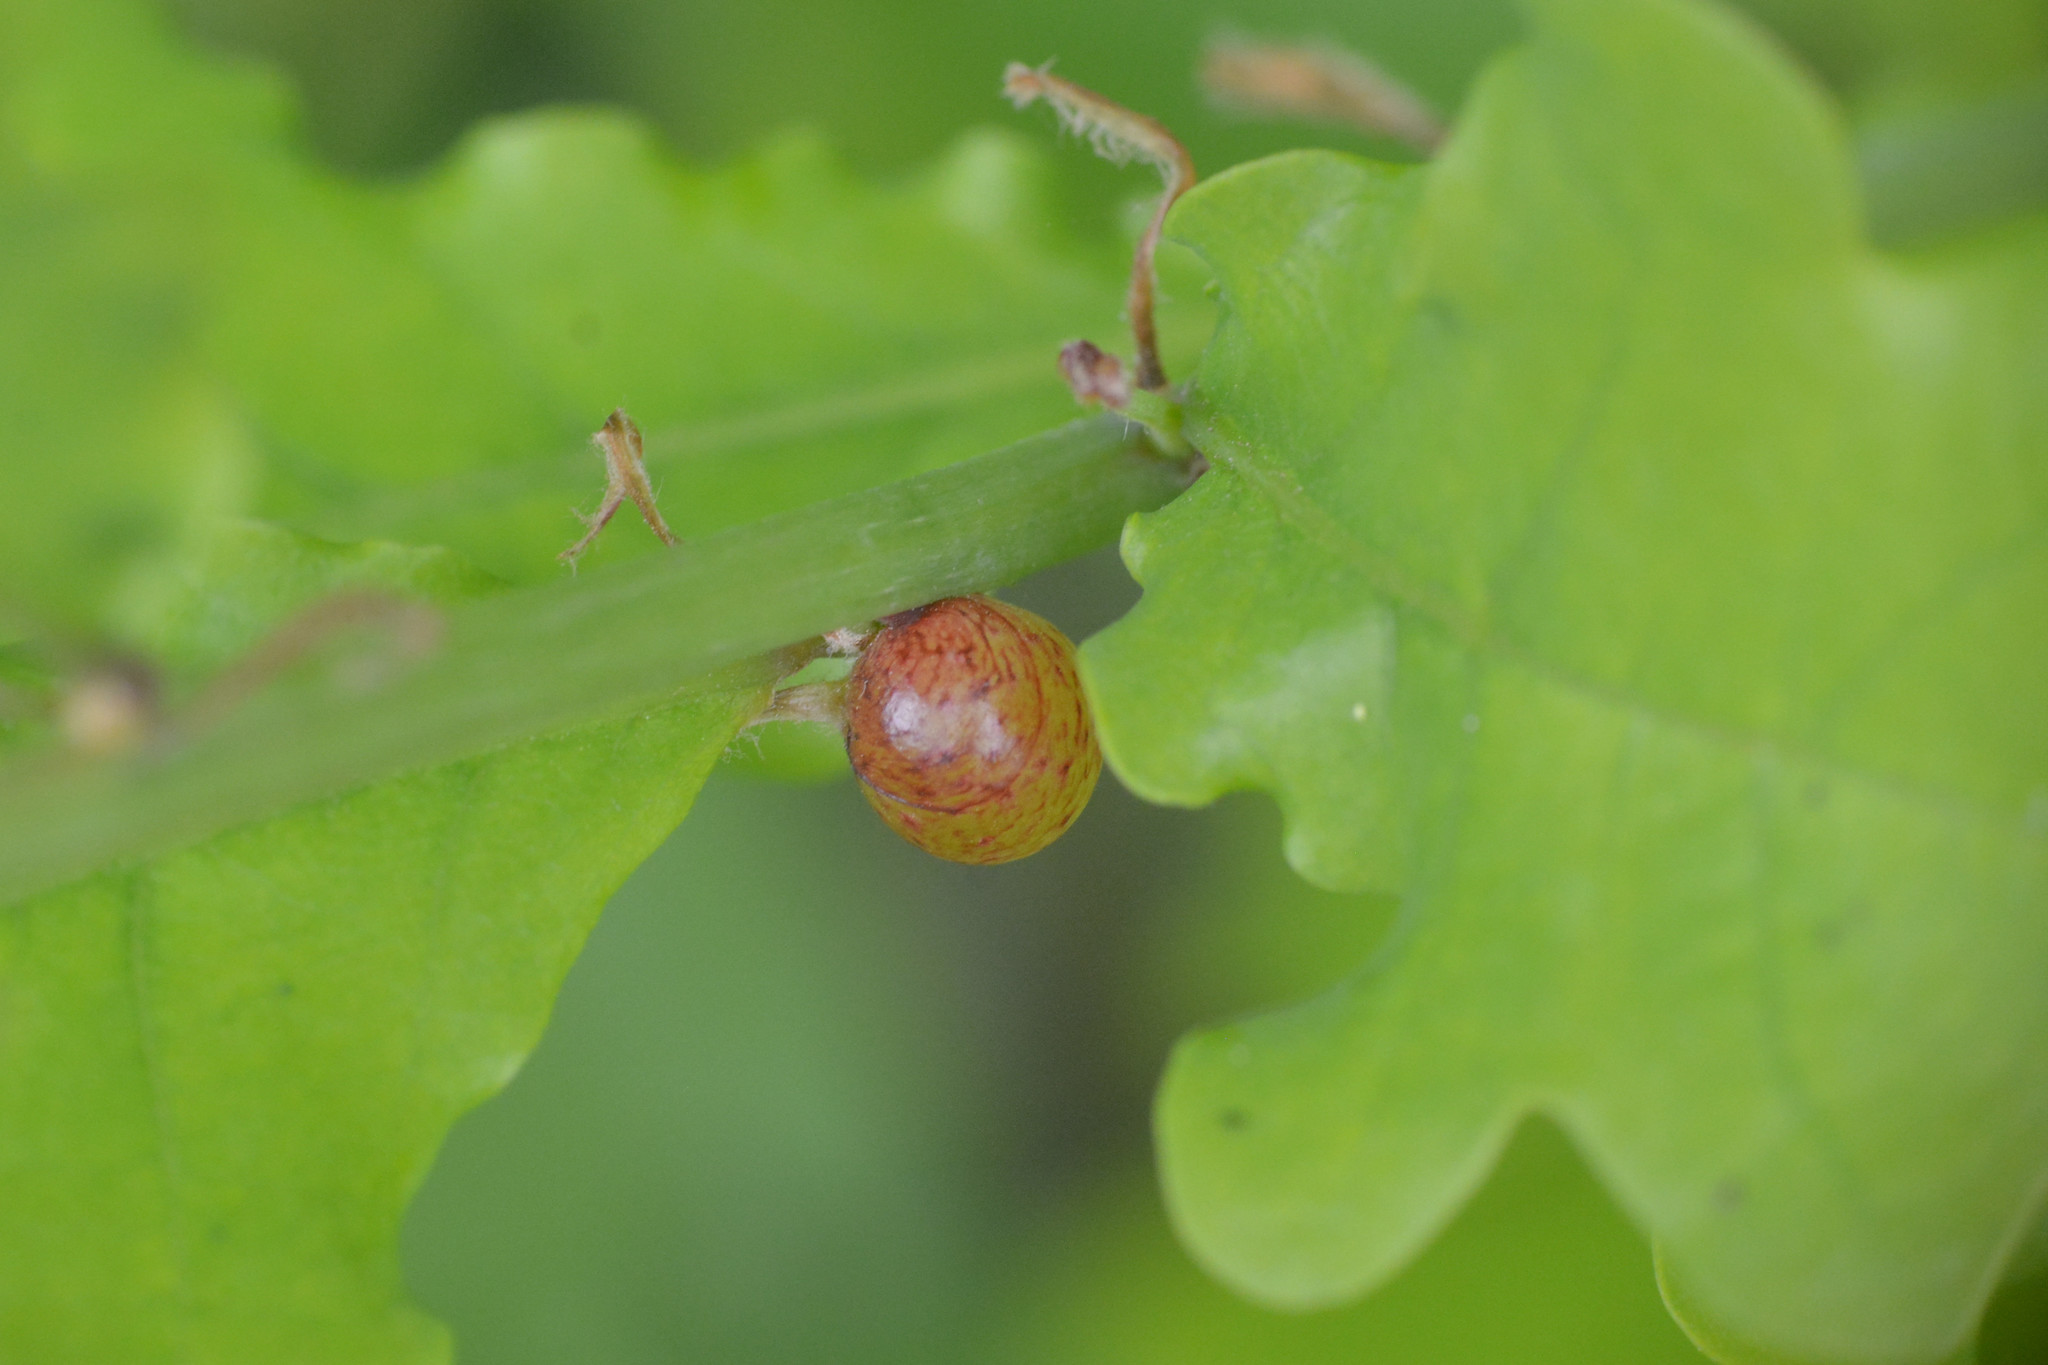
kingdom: Animalia
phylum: Arthropoda
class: Insecta
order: Hymenoptera
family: Cynipidae
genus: Neuroterus
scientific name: Neuroterus quercusbaccarum
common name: Common spangle gall
